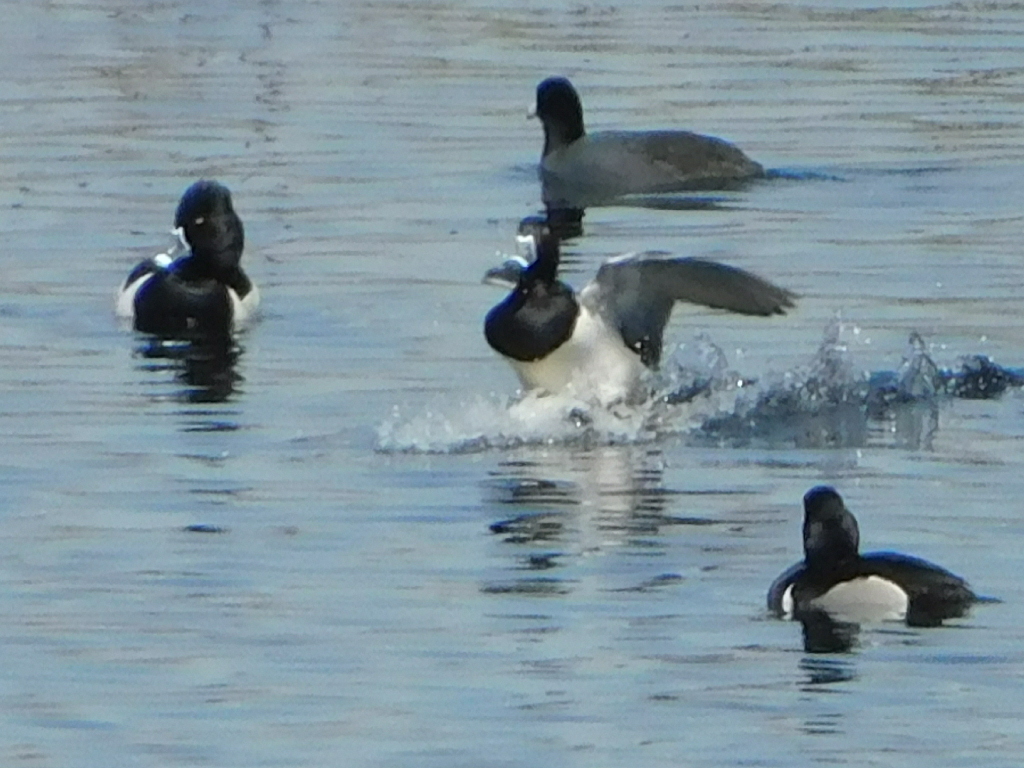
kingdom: Animalia
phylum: Chordata
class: Aves
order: Anseriformes
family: Anatidae
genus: Aythya
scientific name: Aythya collaris
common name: Ring-necked duck
